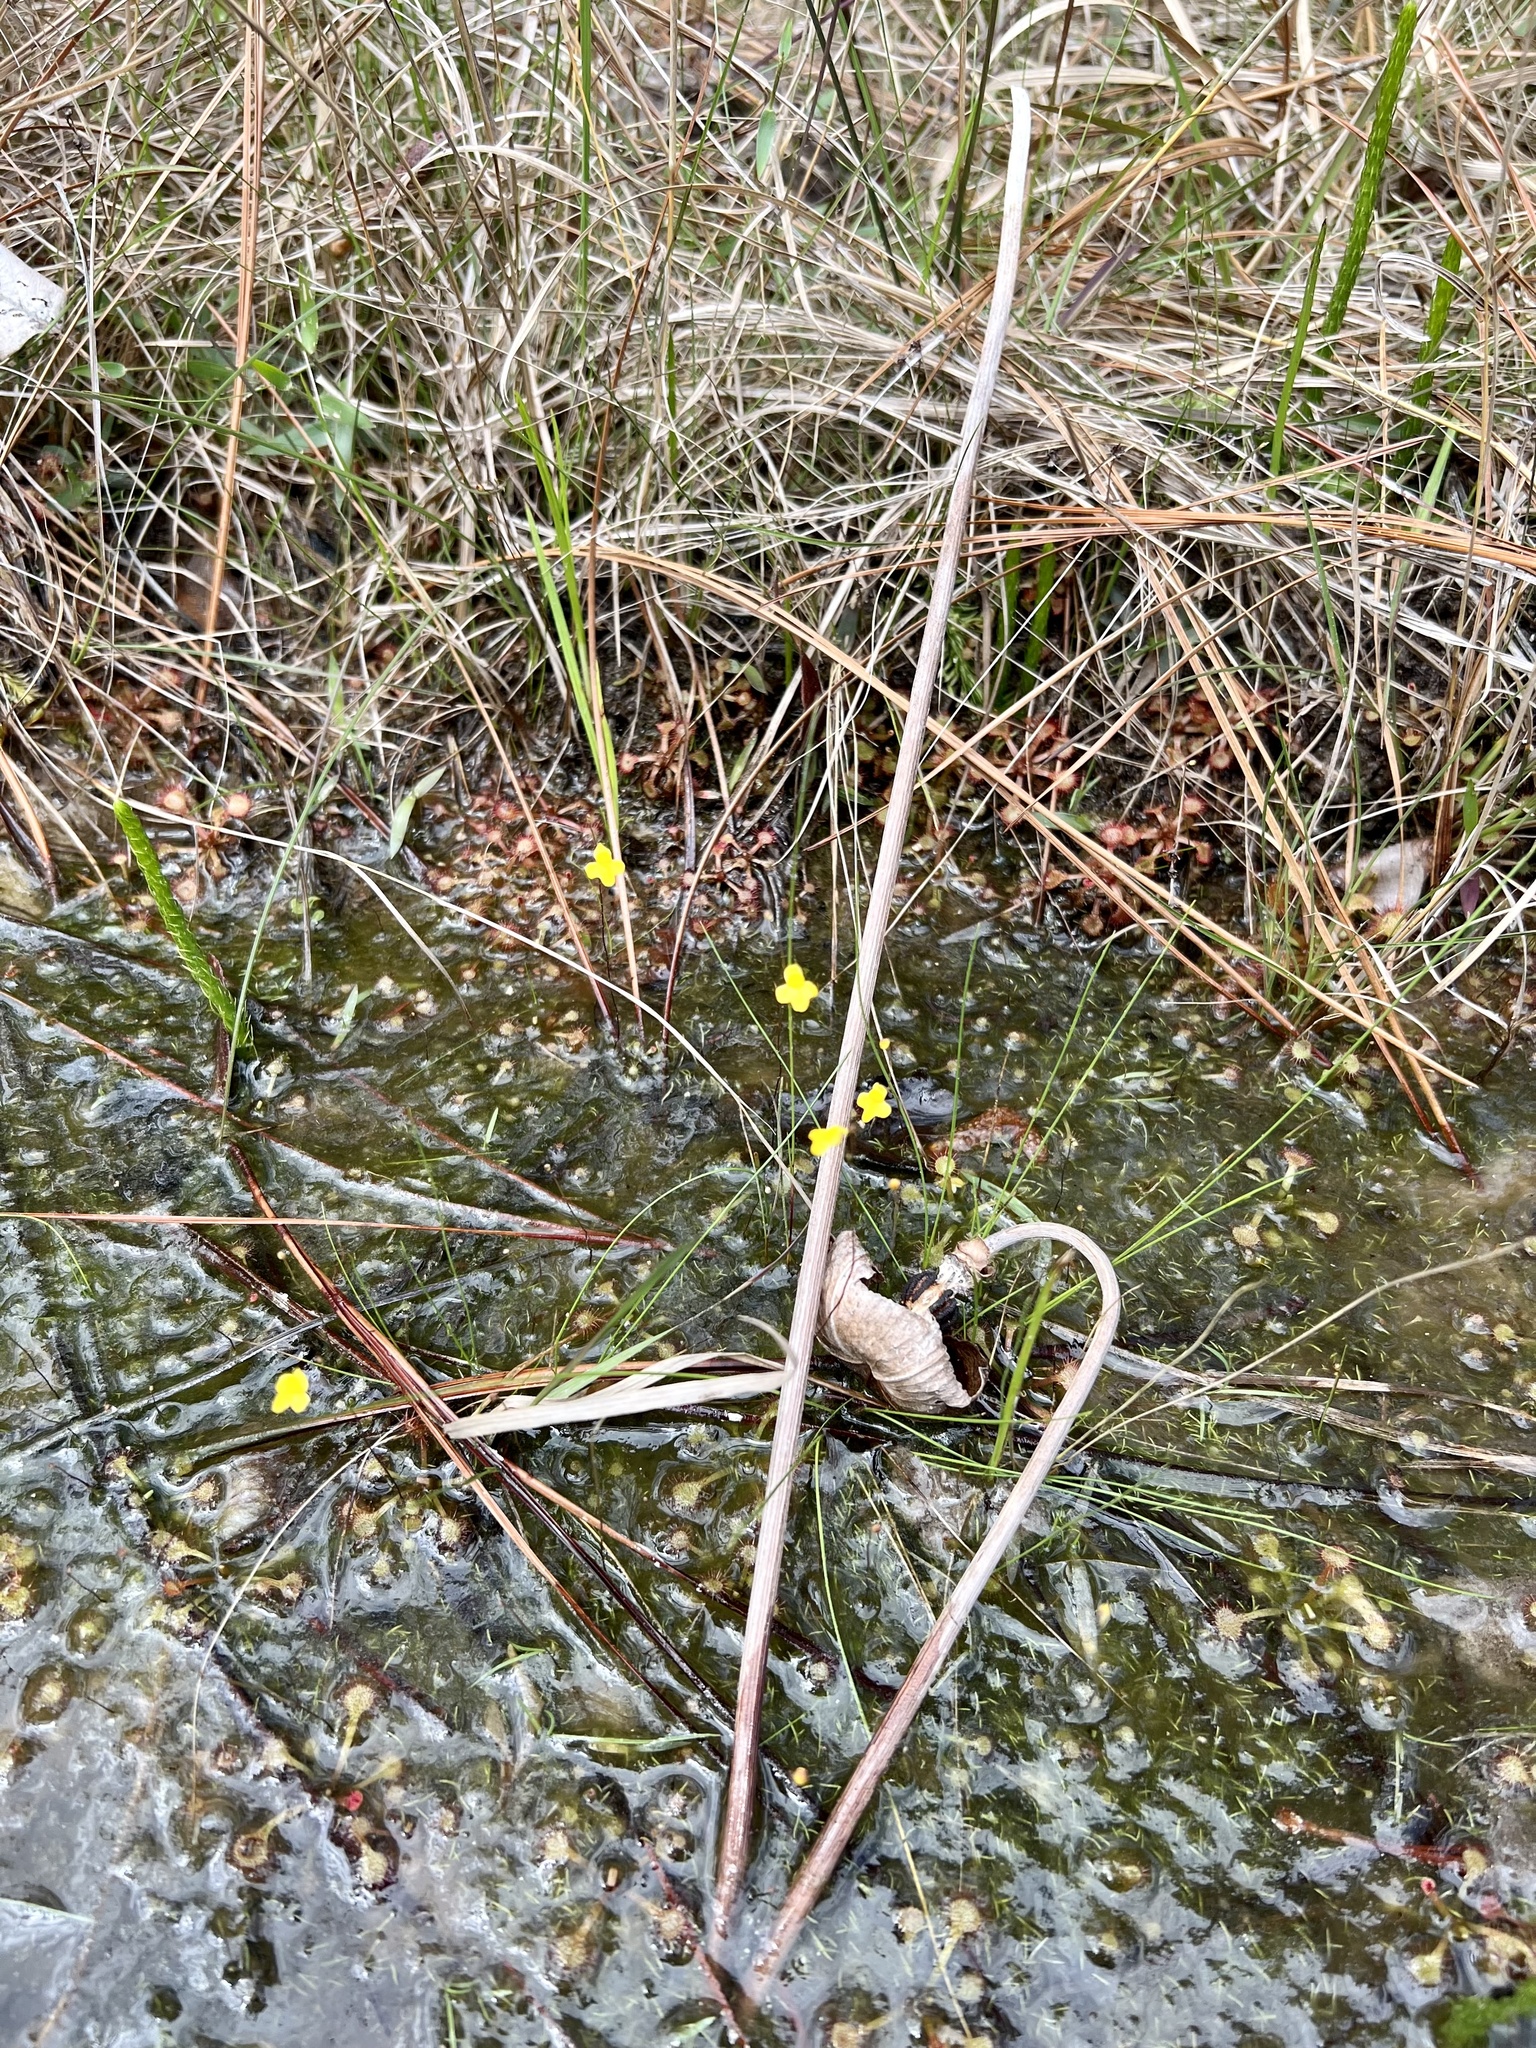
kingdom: Plantae
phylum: Tracheophyta
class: Magnoliopsida
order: Lamiales
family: Lentibulariaceae
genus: Utricularia
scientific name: Utricularia subulata
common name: Tiny bladderwort
